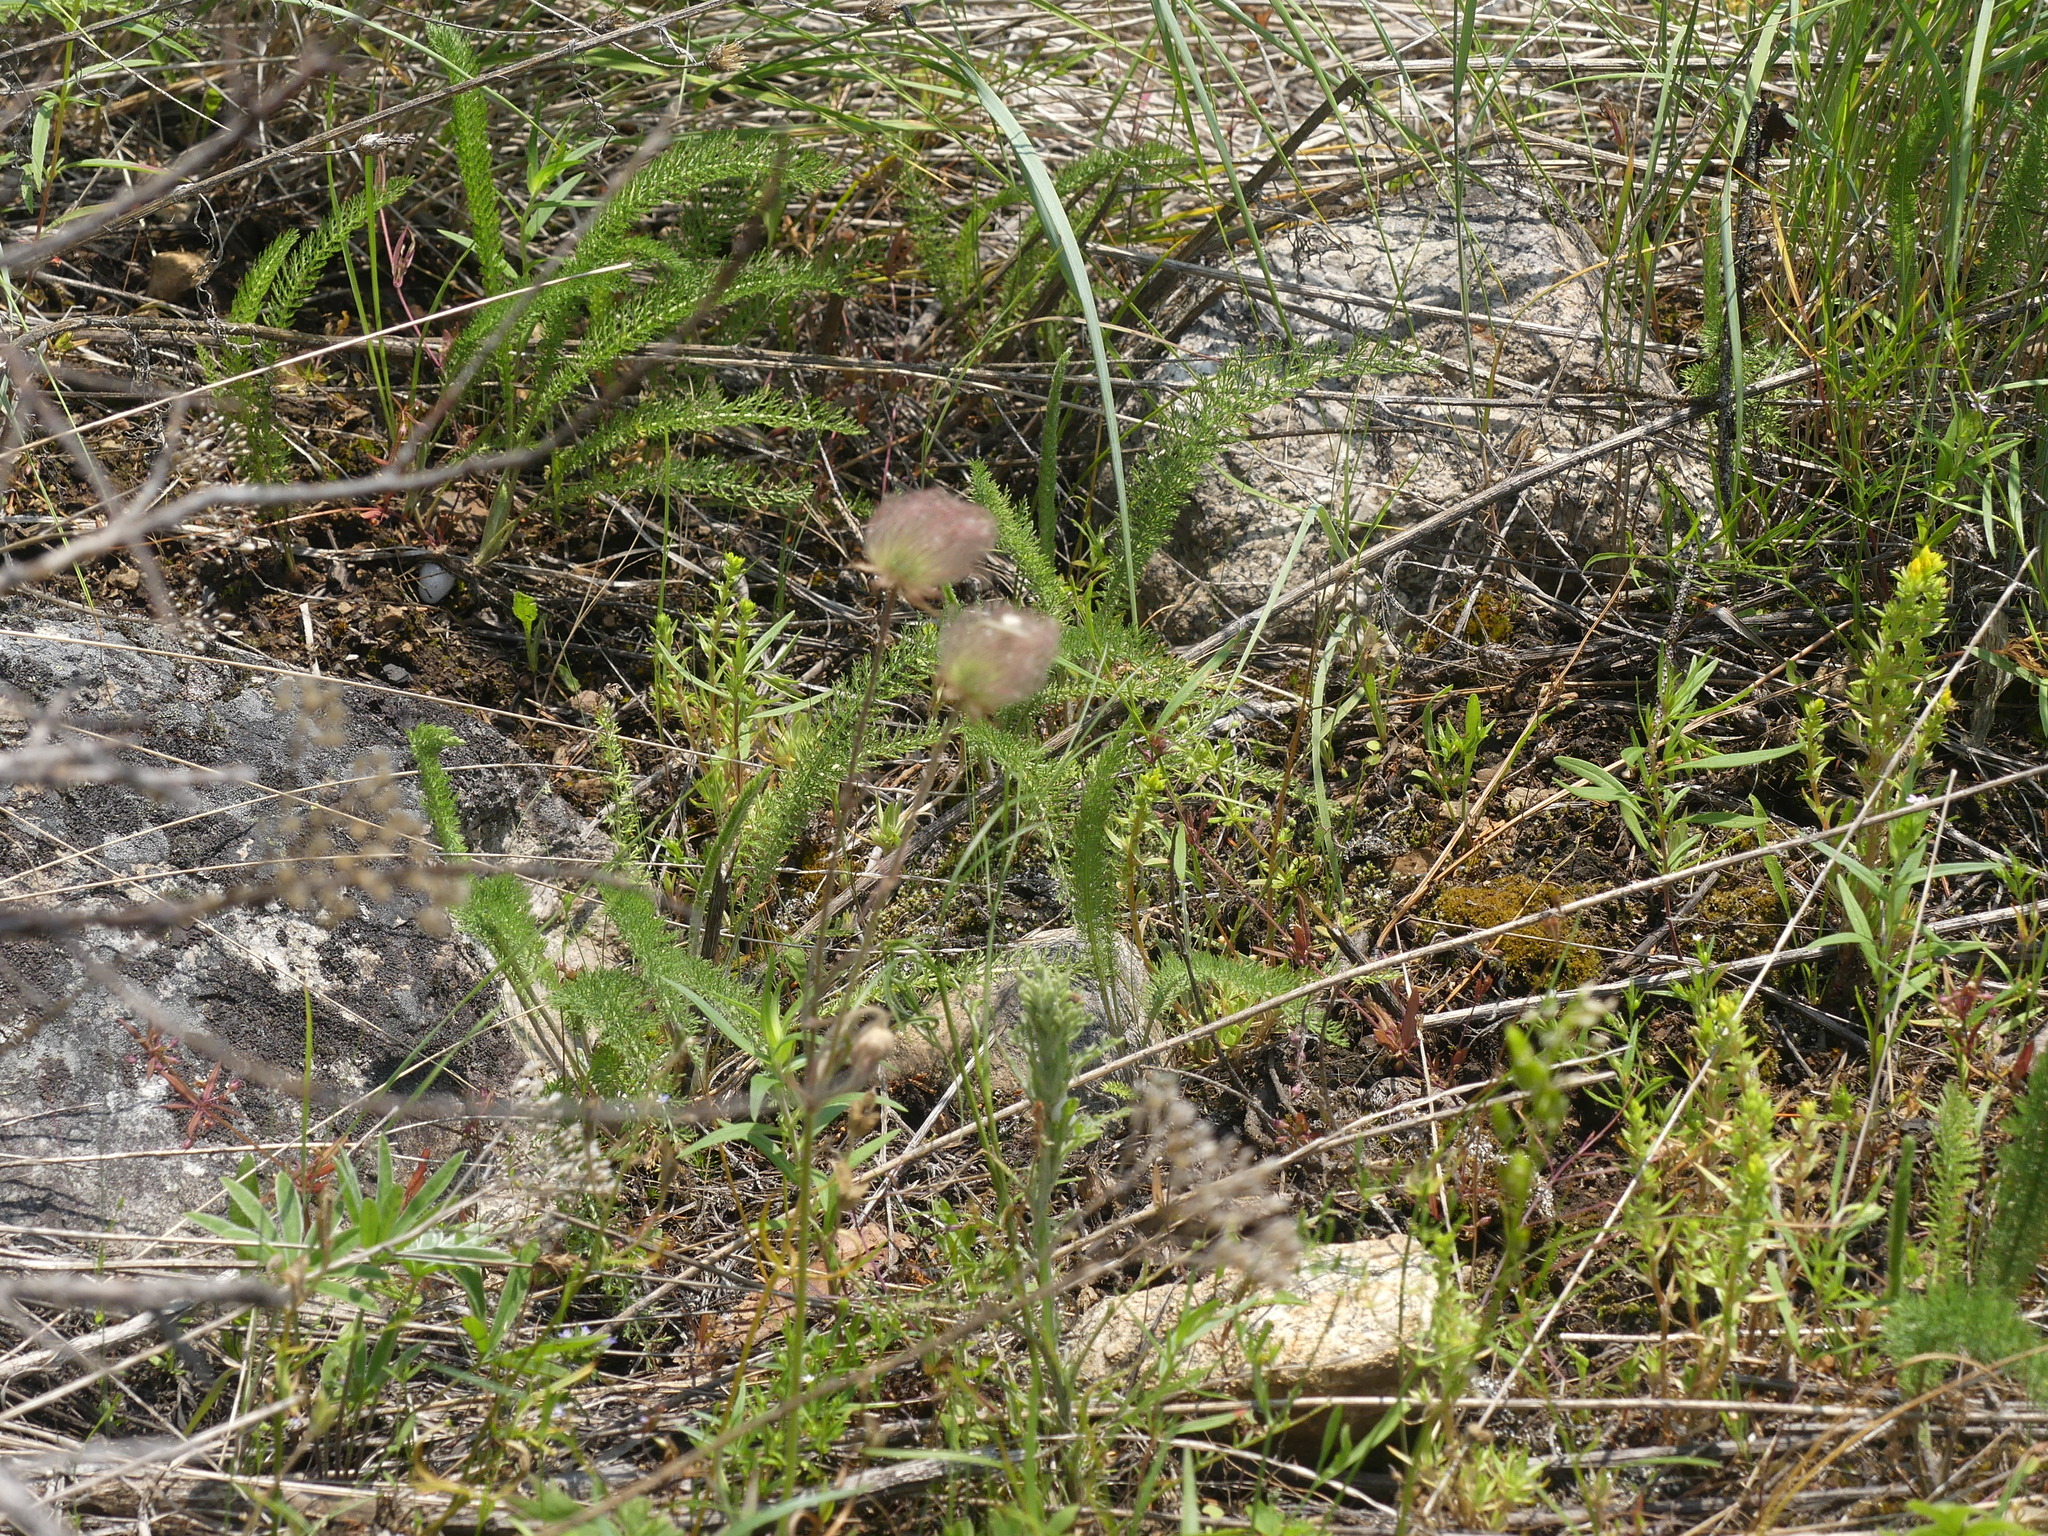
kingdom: Plantae
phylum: Tracheophyta
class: Magnoliopsida
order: Rosales
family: Rosaceae
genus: Geum
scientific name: Geum triflorum
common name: Old man's whiskers
